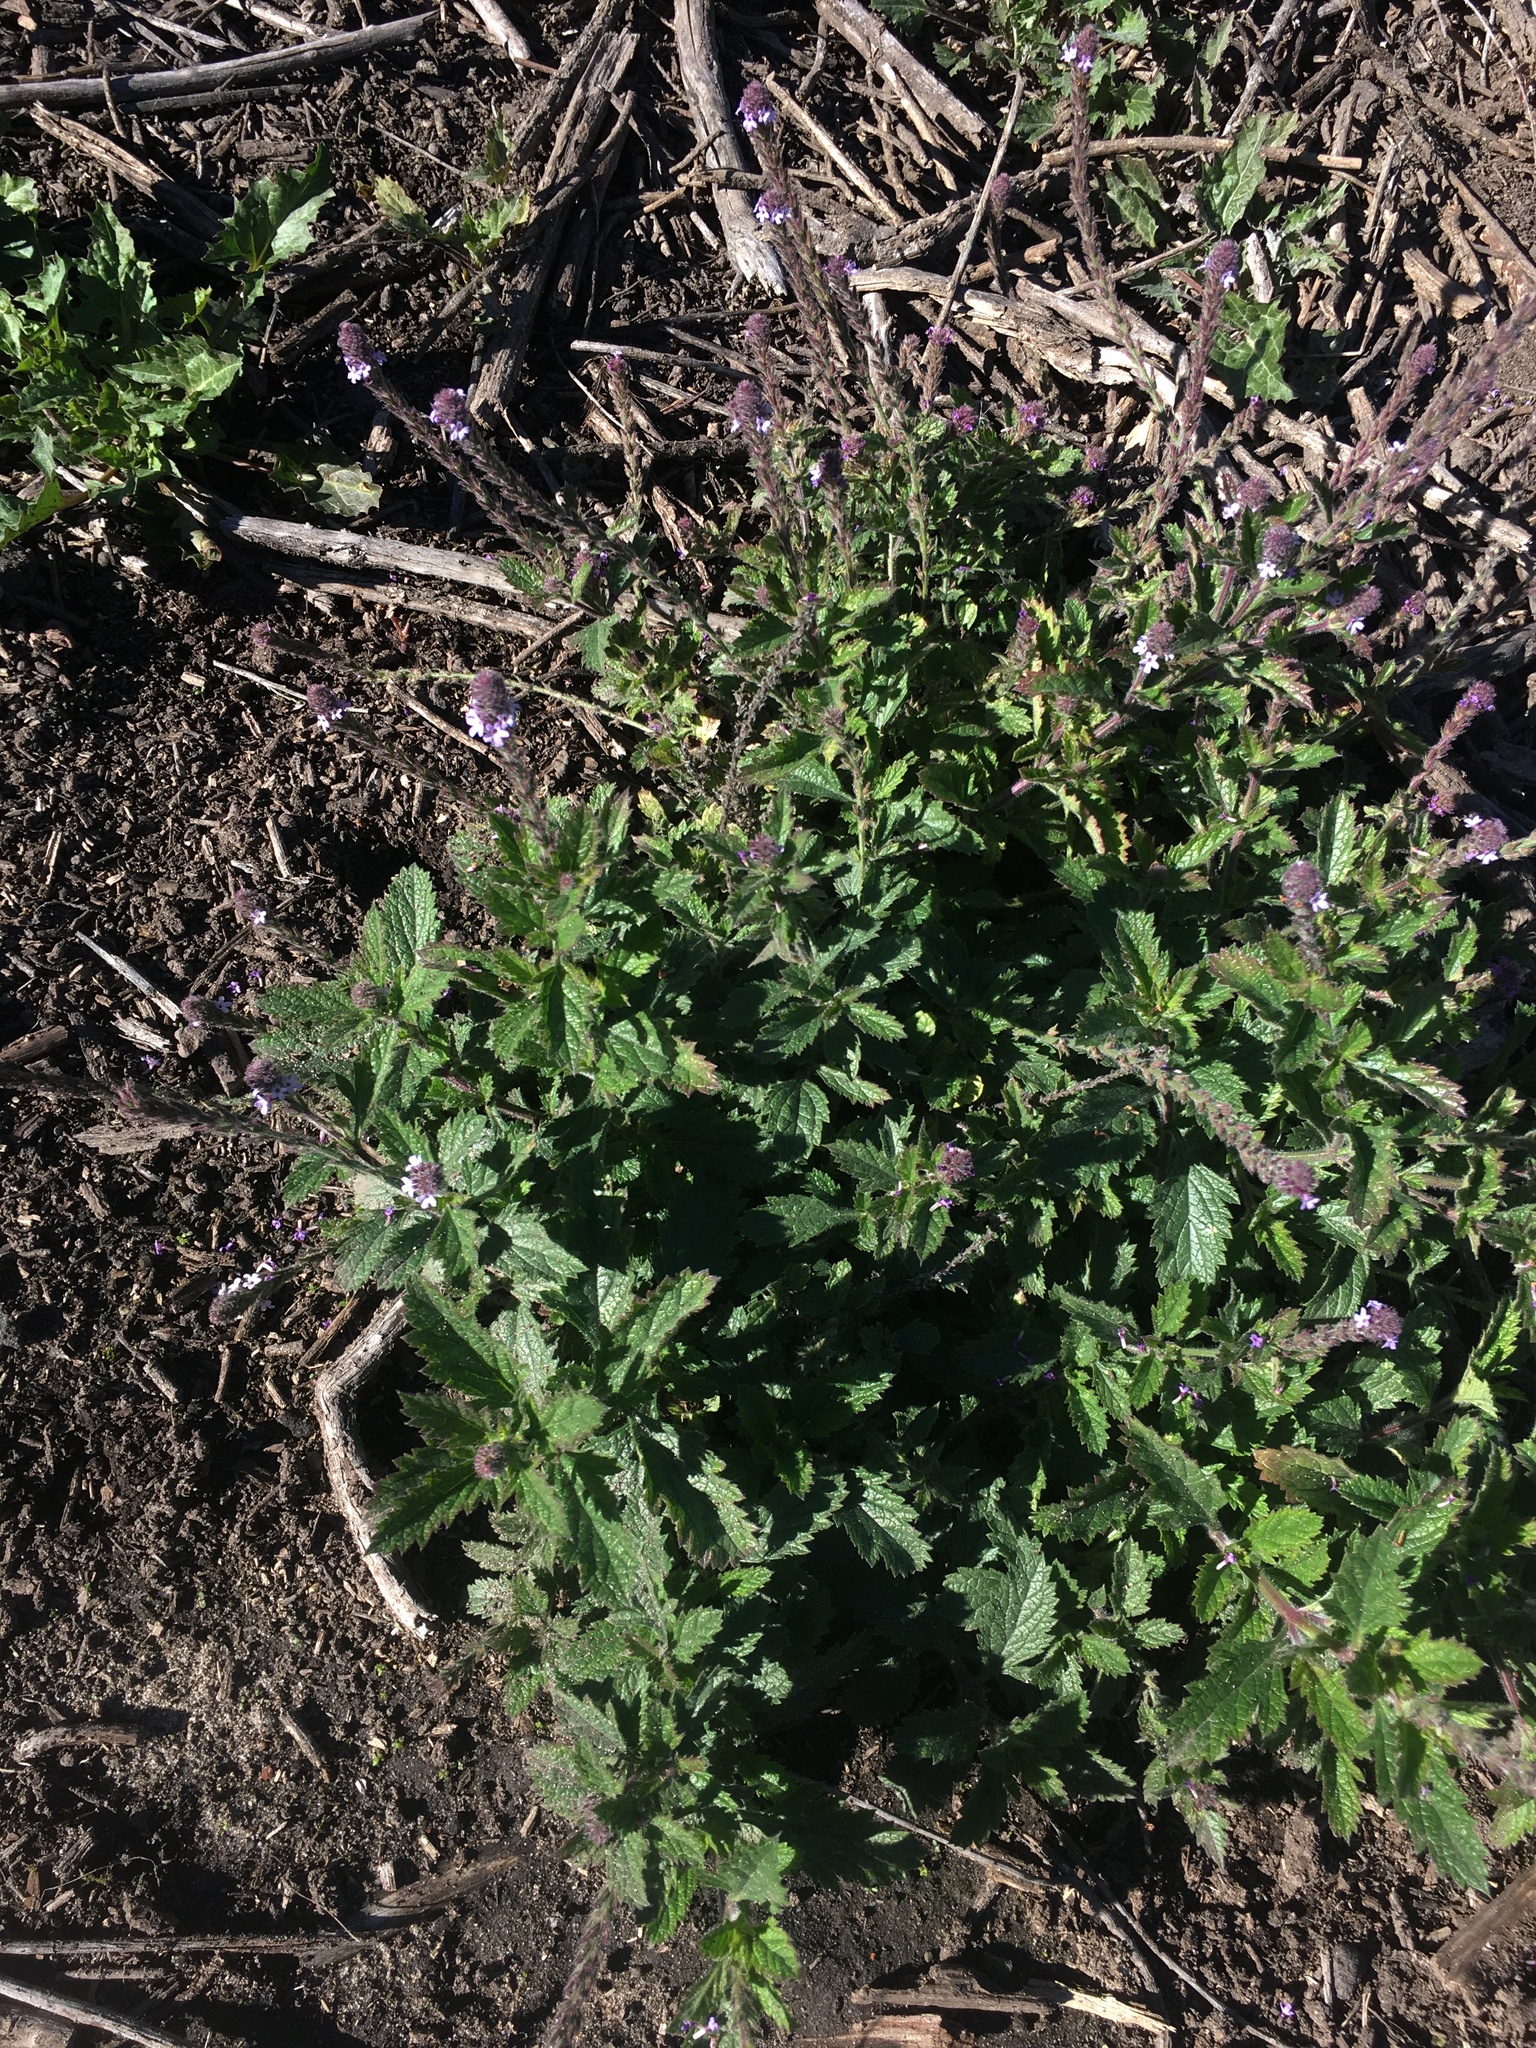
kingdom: Plantae
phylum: Tracheophyta
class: Magnoliopsida
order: Lamiales
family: Verbenaceae
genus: Verbena
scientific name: Verbena lasiostachys
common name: Vervain
